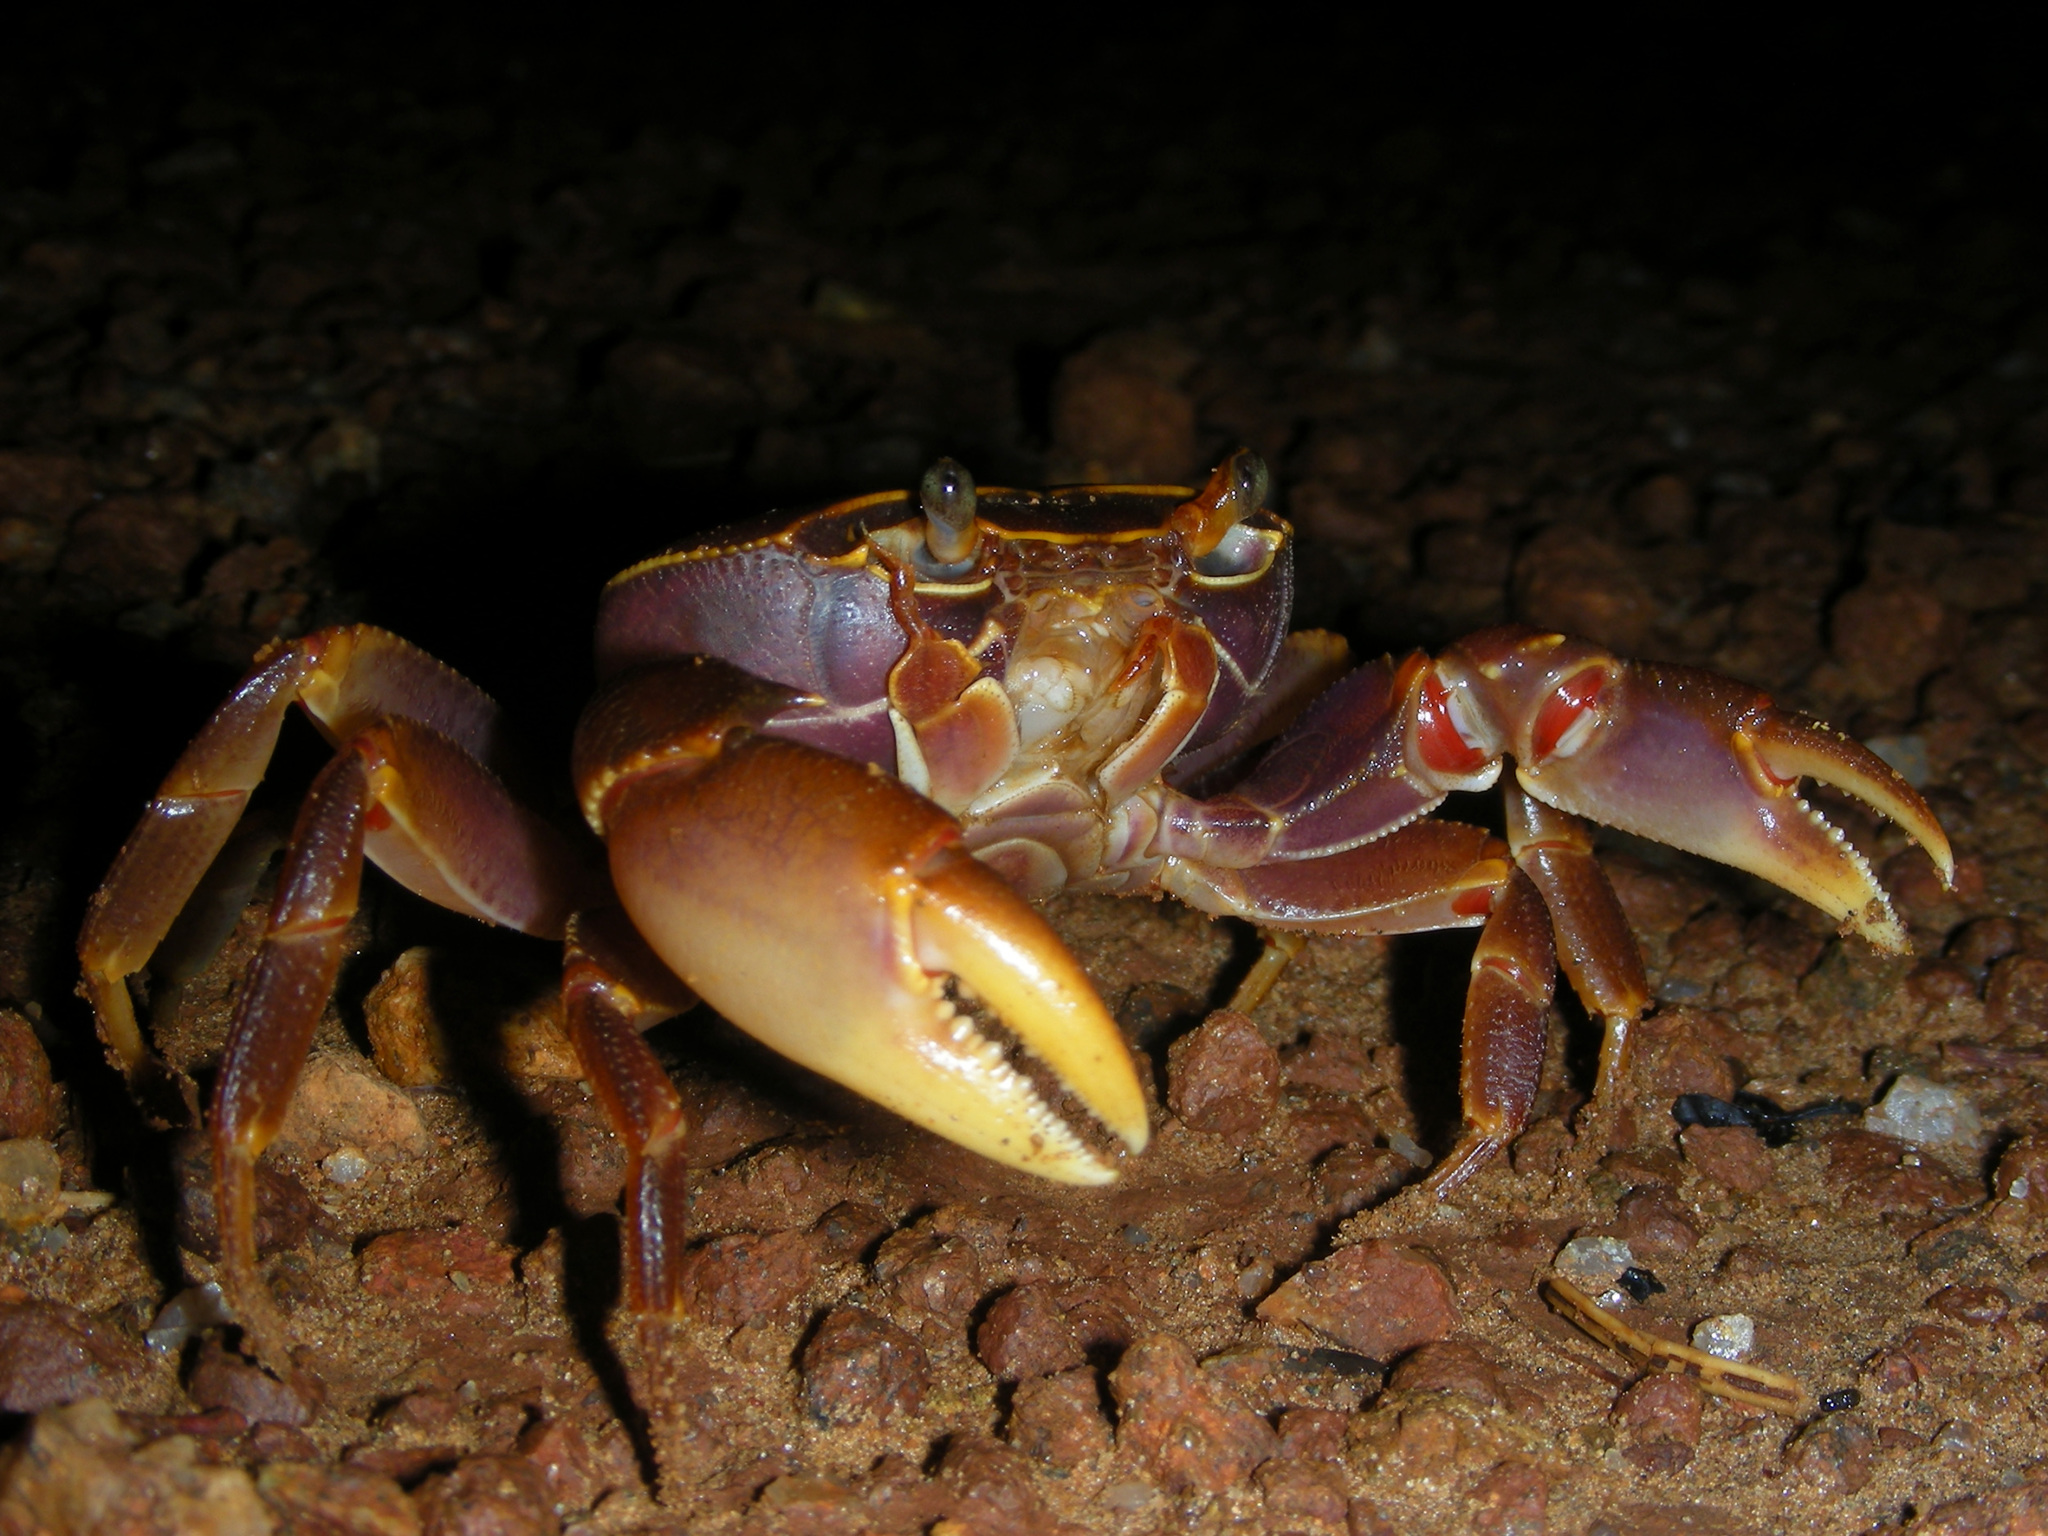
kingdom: Animalia
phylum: Arthropoda
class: Malacostraca
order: Decapoda
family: Potamonautidae
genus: Maritimonautes
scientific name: Maritimonautes choloensis
